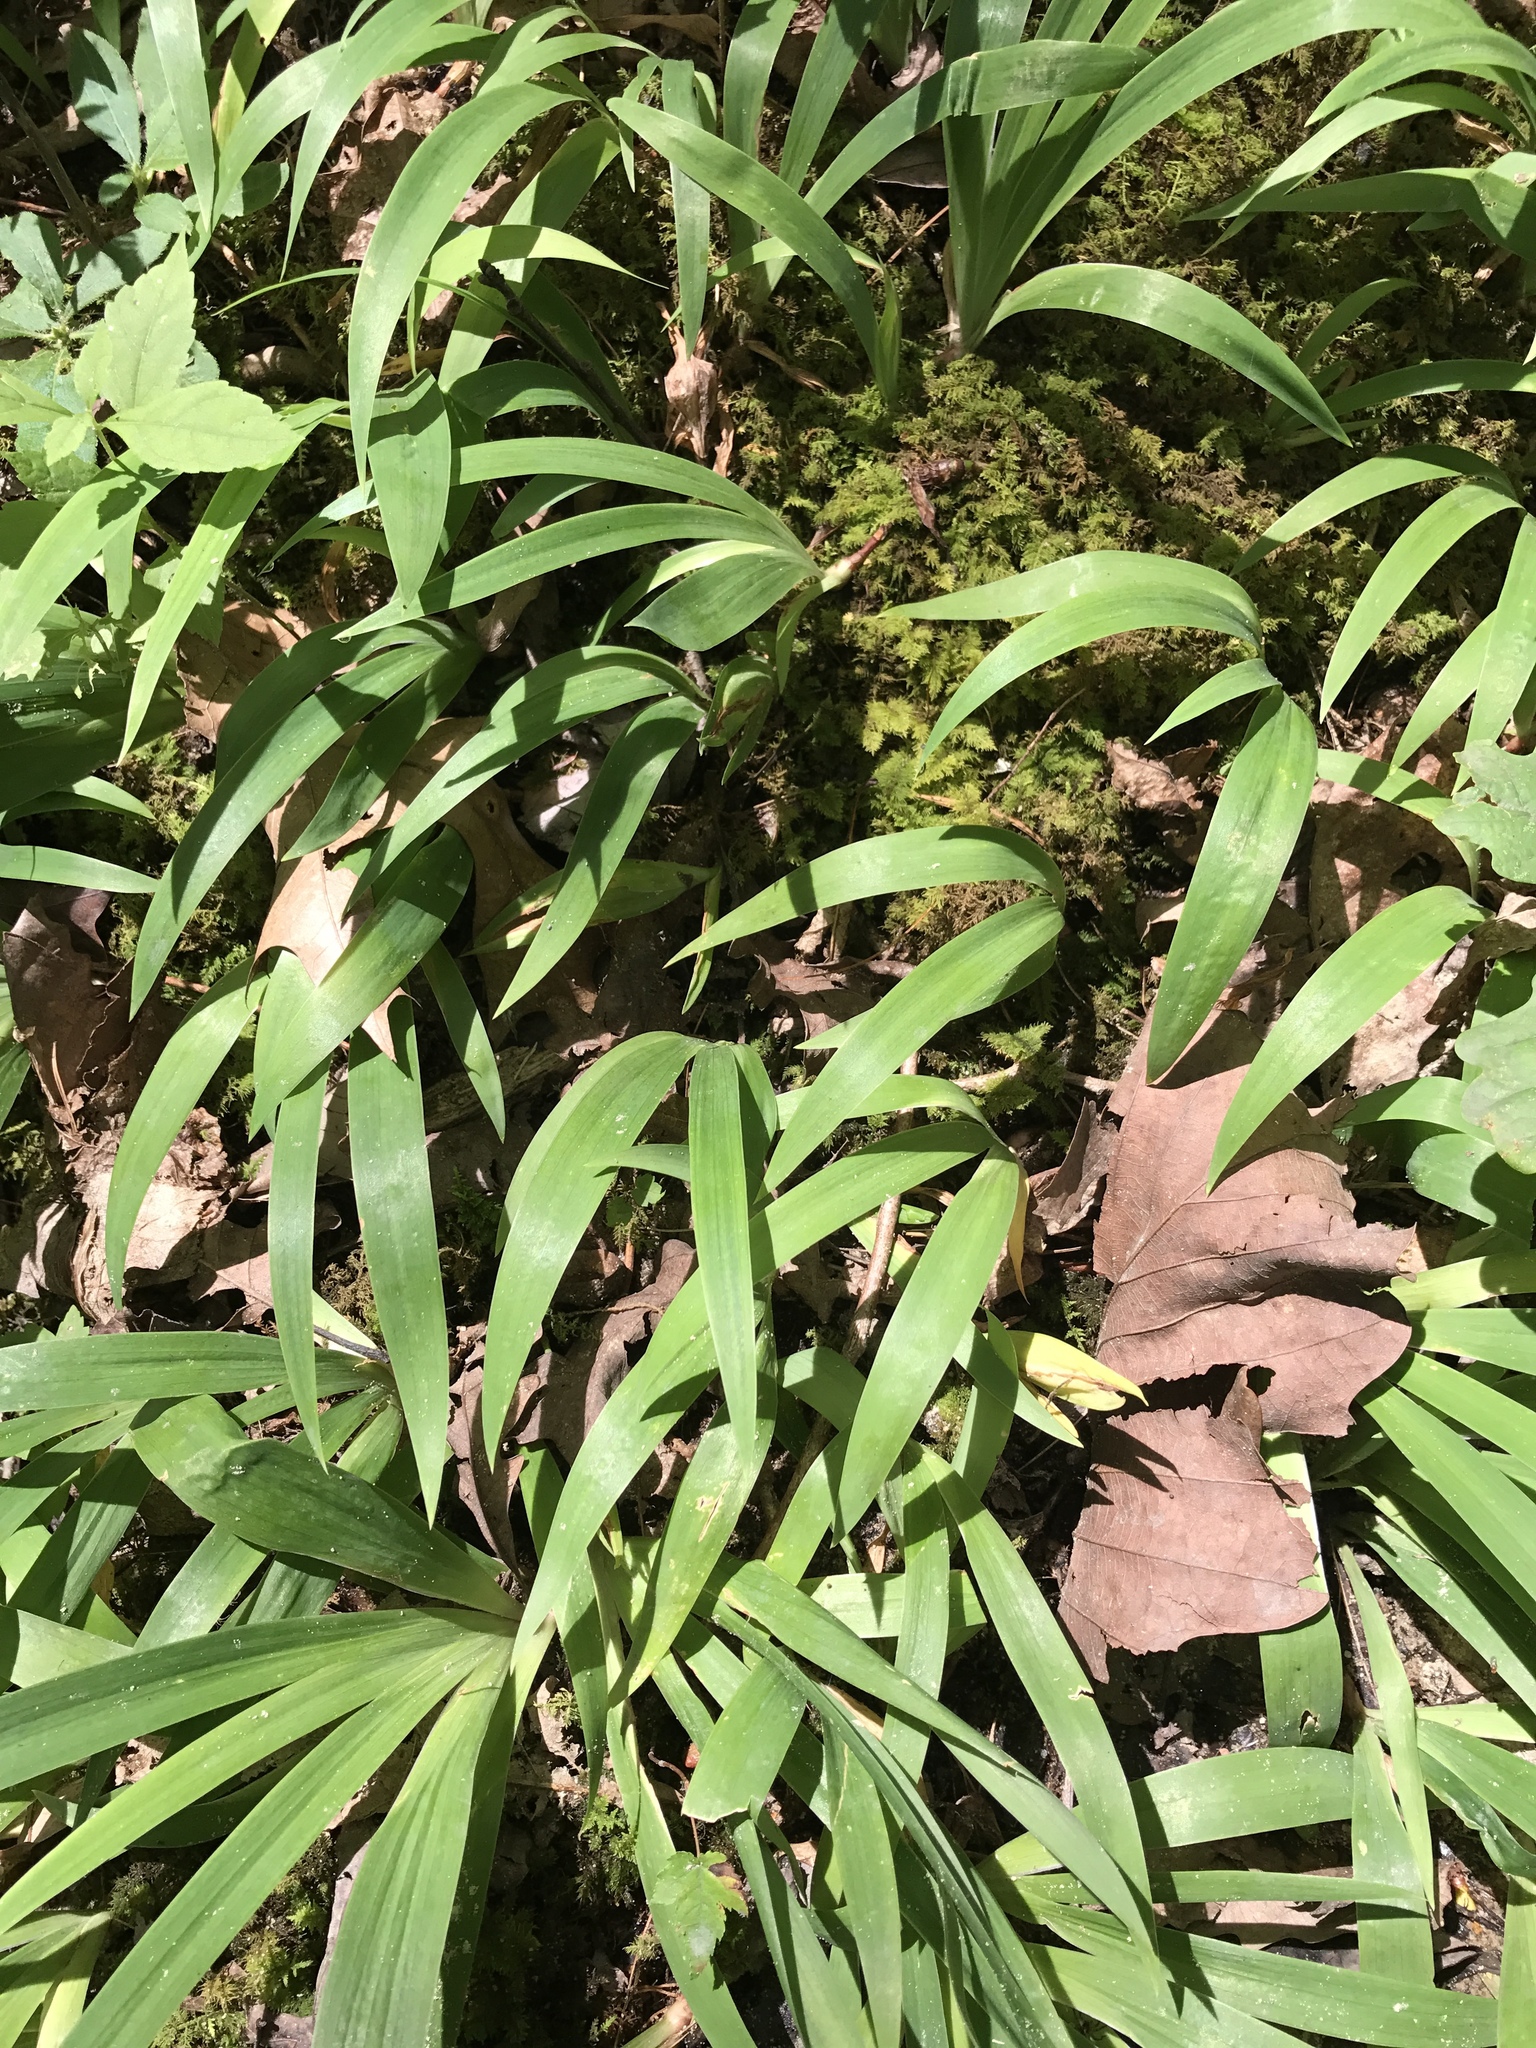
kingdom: Plantae
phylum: Tracheophyta
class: Liliopsida
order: Asparagales
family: Iridaceae
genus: Iris
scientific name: Iris cristata
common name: Crested iris
